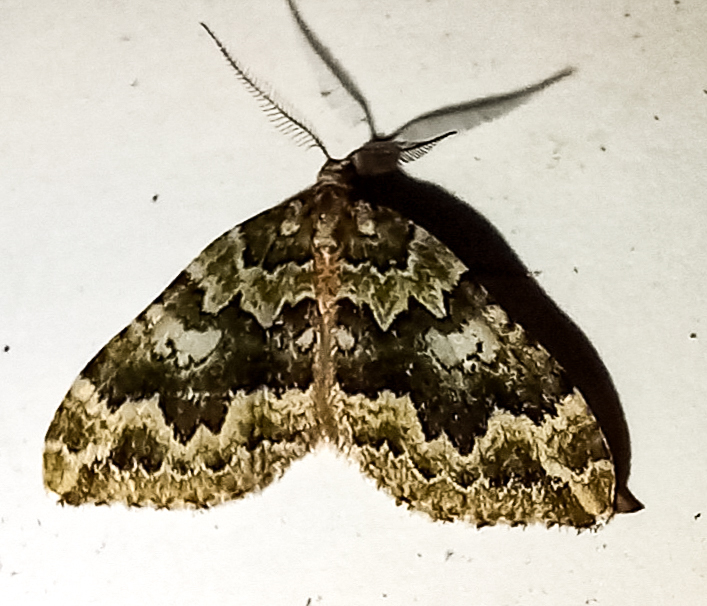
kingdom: Animalia
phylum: Arthropoda
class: Insecta
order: Lepidoptera
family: Geometridae
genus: Asaphodes
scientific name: Asaphodes beata
